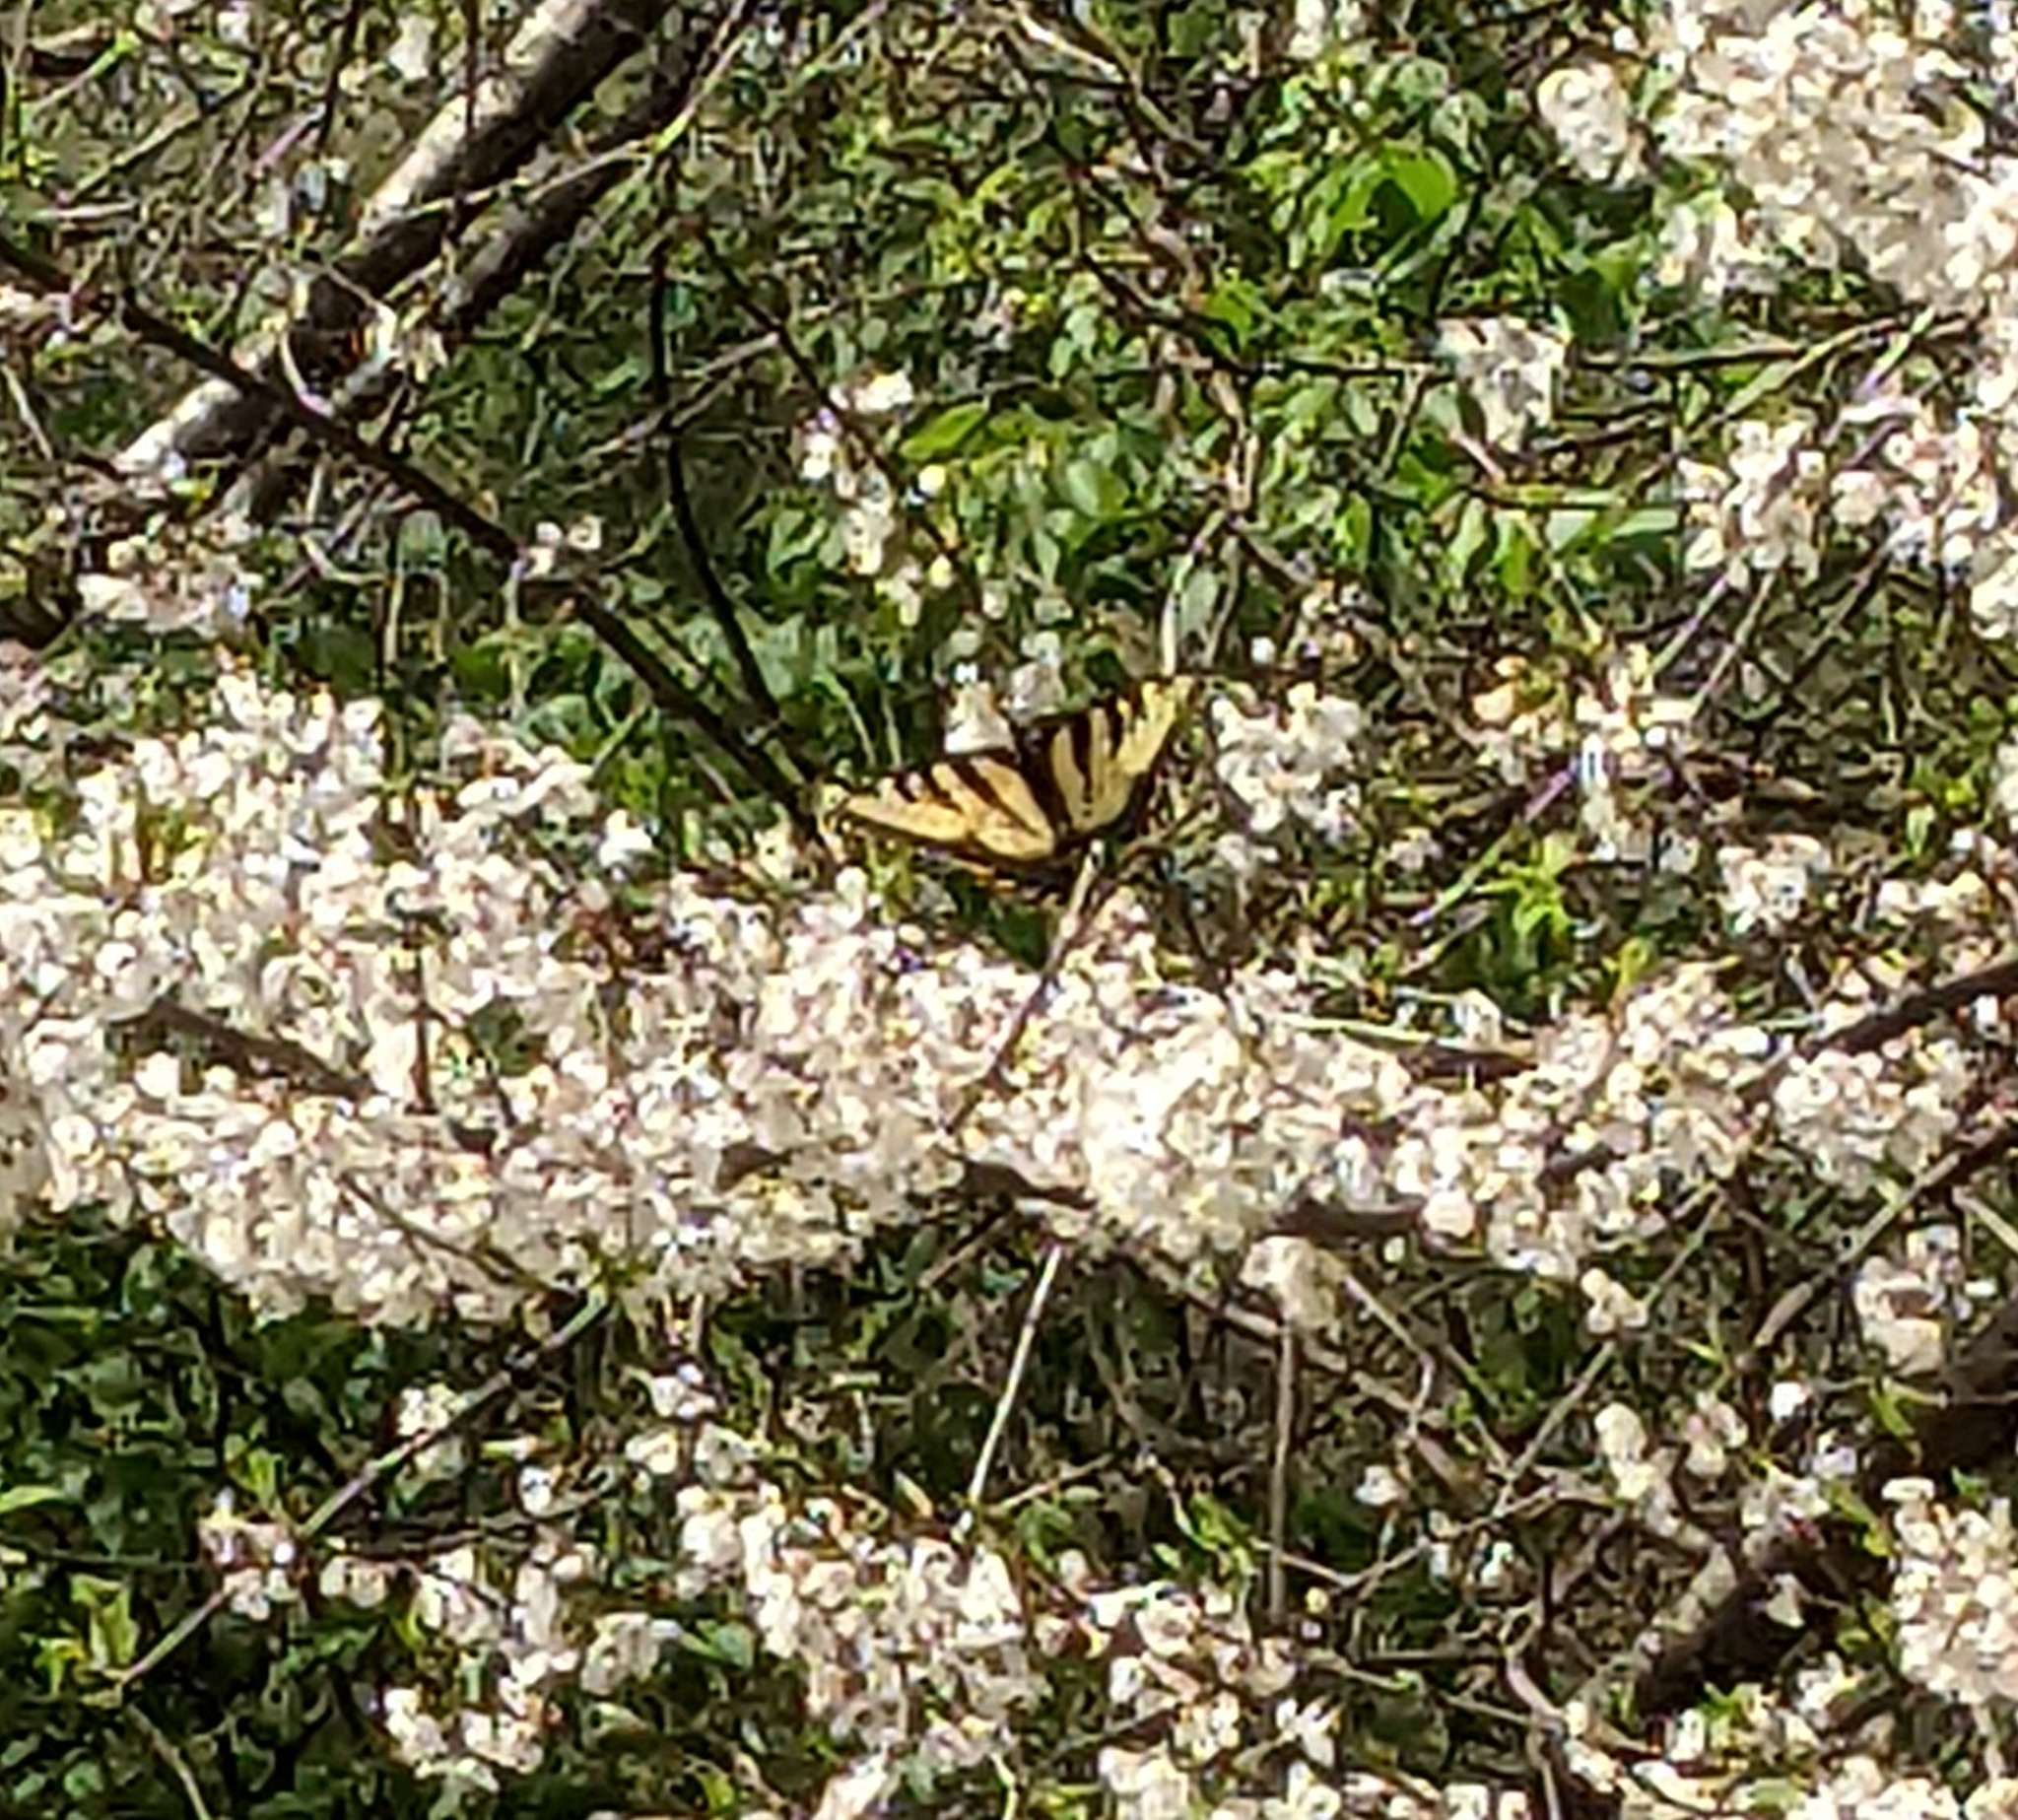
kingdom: Animalia
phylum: Arthropoda
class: Insecta
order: Lepidoptera
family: Papilionidae
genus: Papilio
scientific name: Papilio glaucus
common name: Tiger swallowtail
